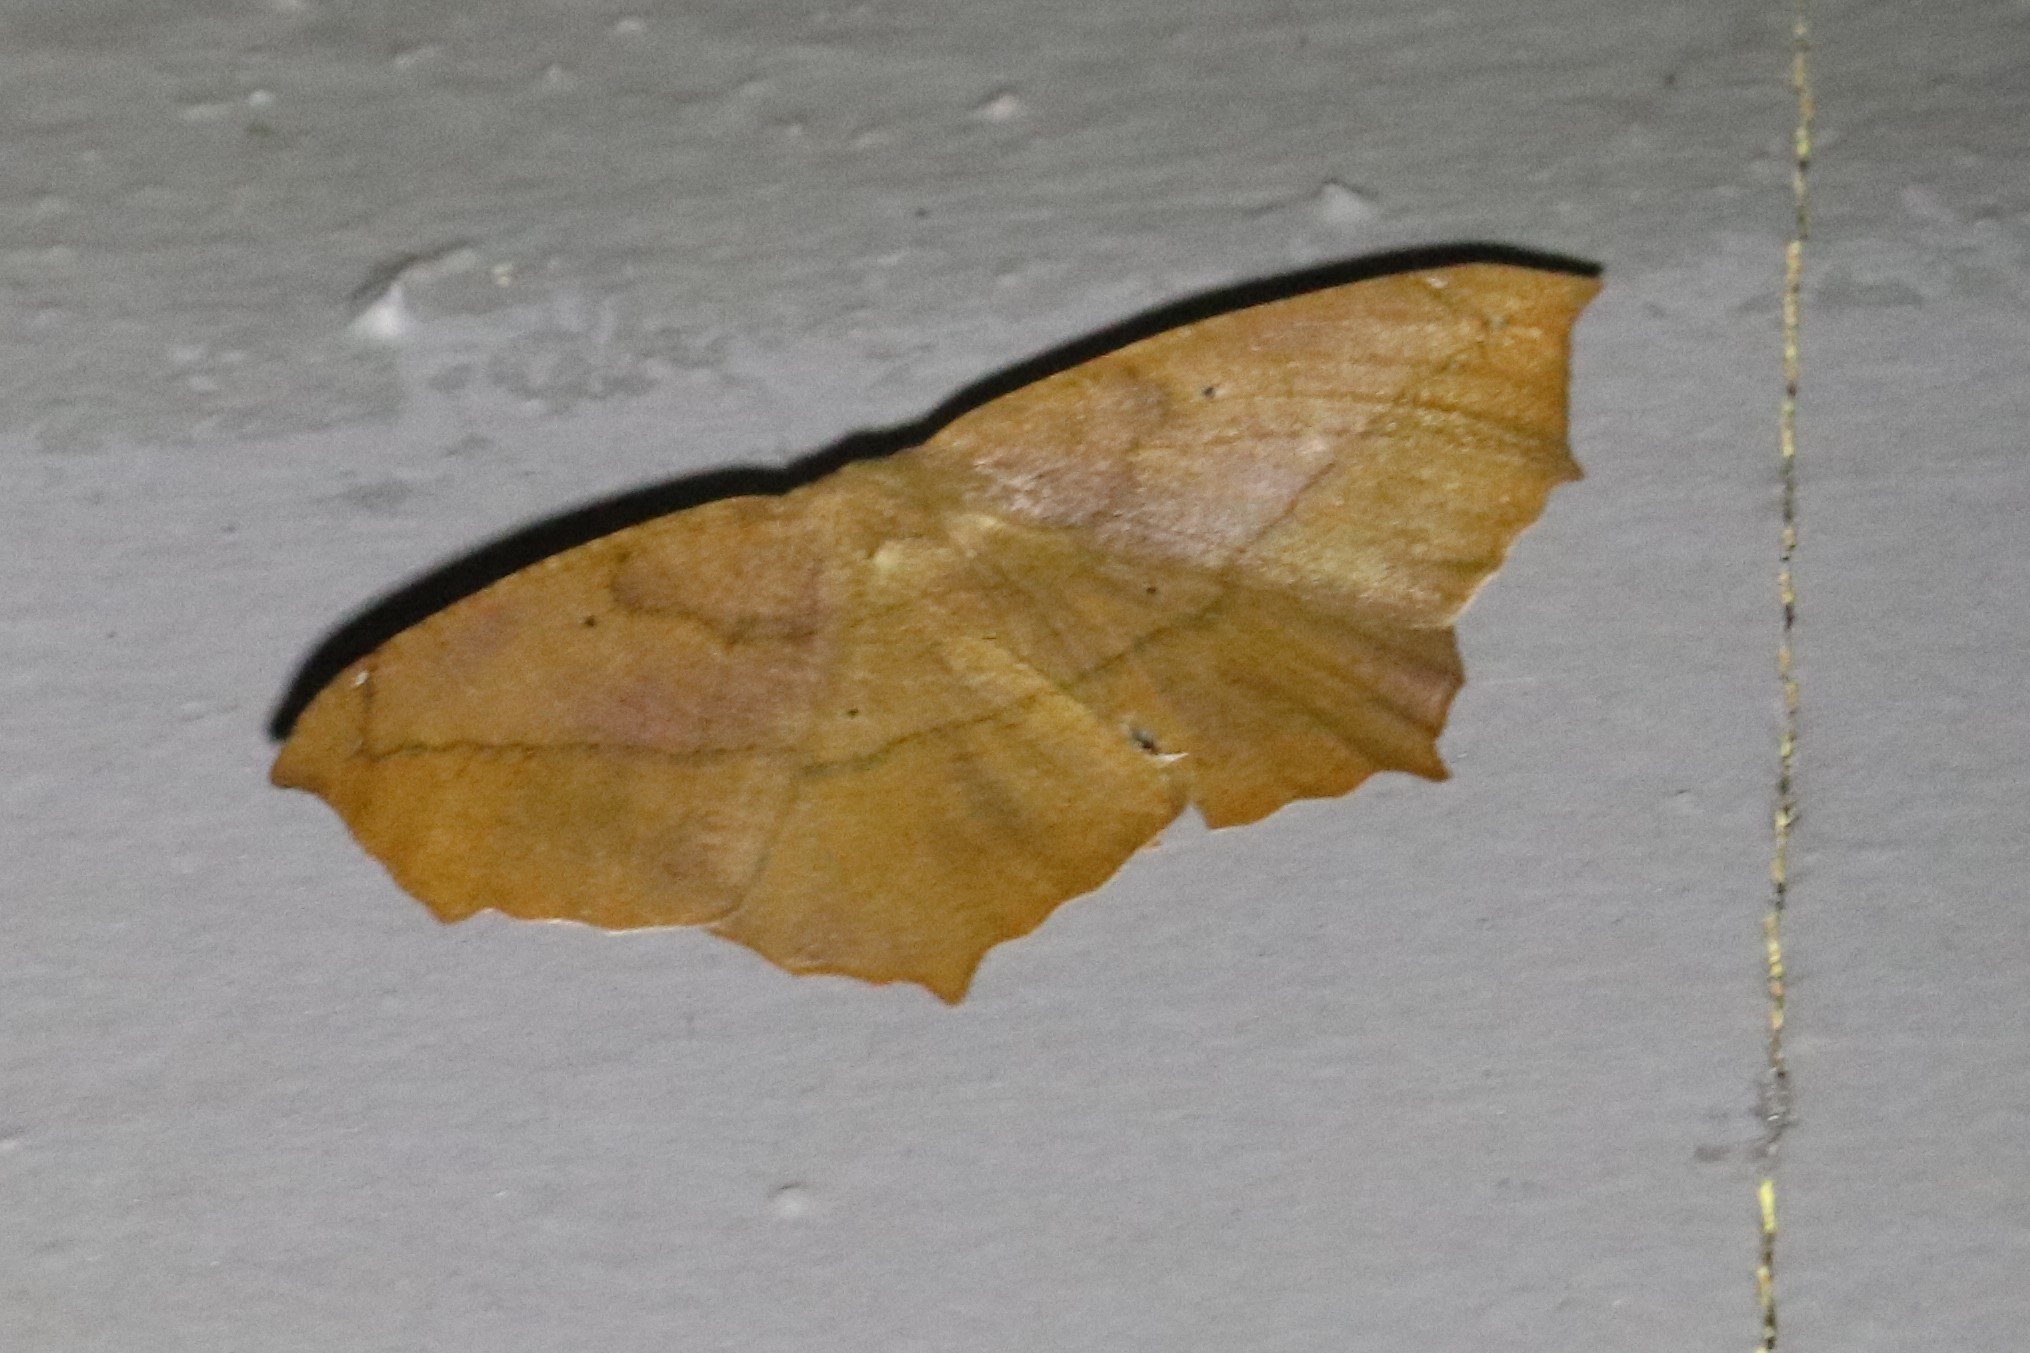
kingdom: Animalia
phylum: Arthropoda
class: Insecta
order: Lepidoptera
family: Geometridae
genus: Prochoerodes
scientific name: Prochoerodes lineola
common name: Large maple spanworm
